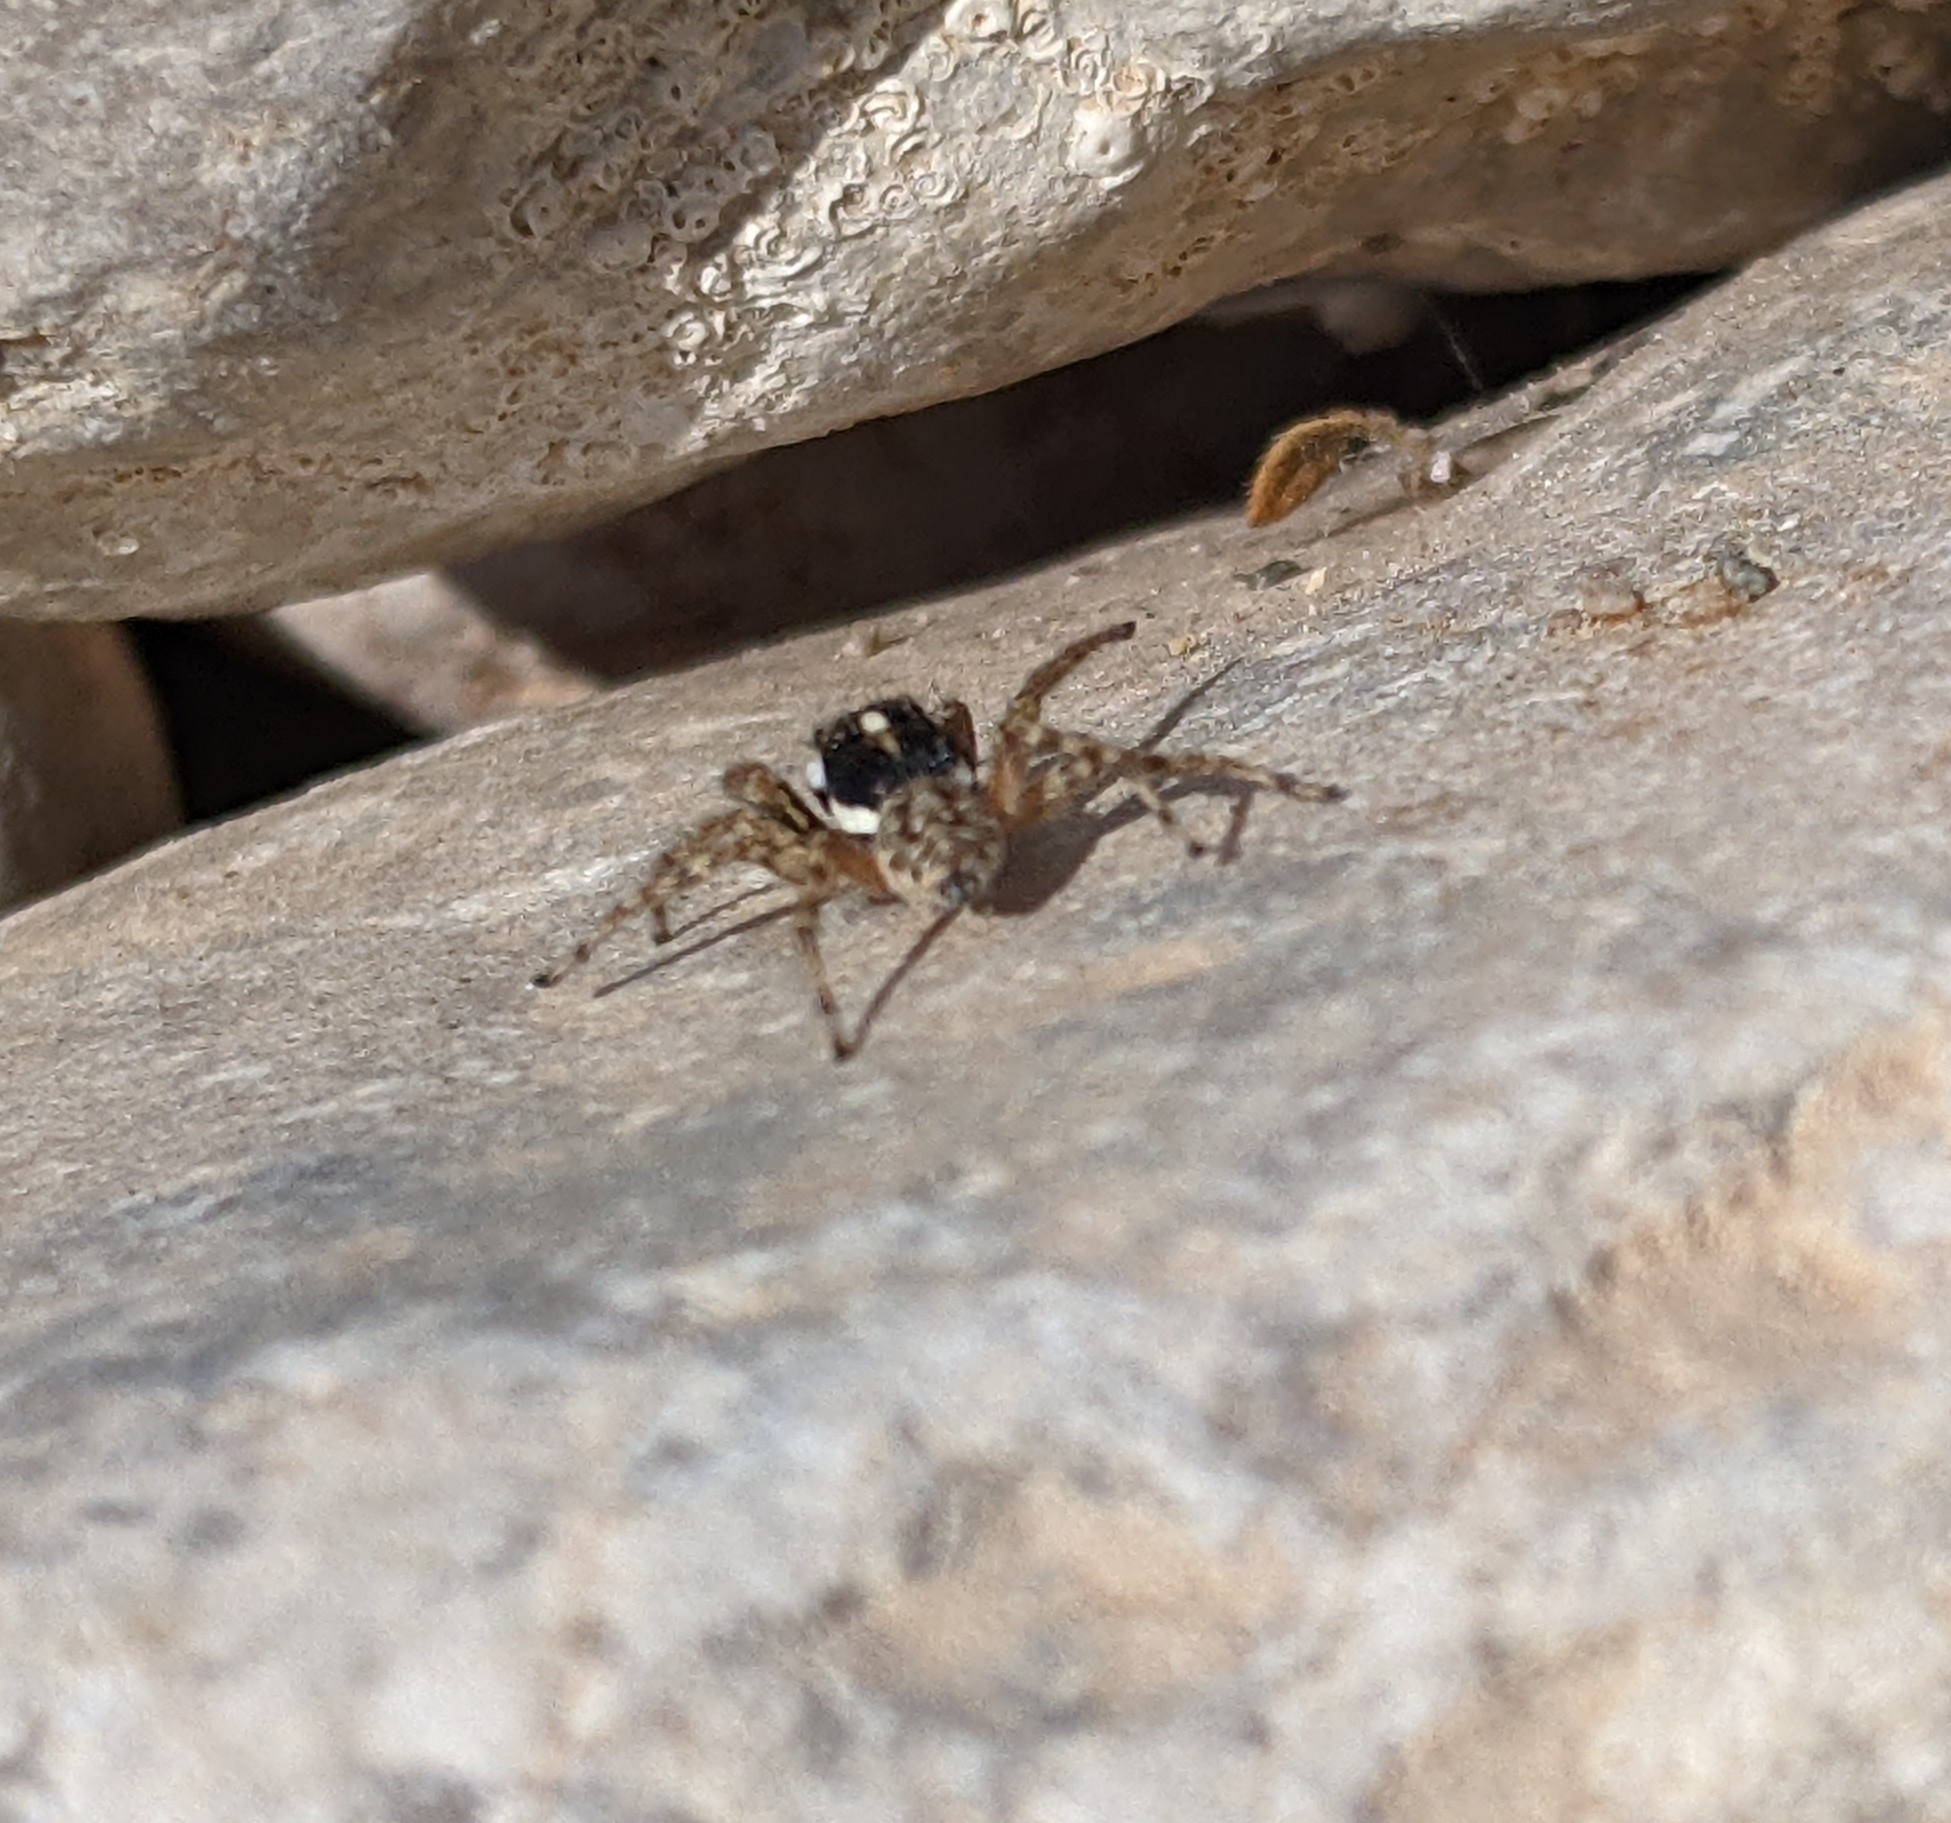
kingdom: Animalia
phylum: Arthropoda
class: Arachnida
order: Araneae
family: Salticidae
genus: Menemerus
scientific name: Menemerus semilimbatus
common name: Jumping spider
